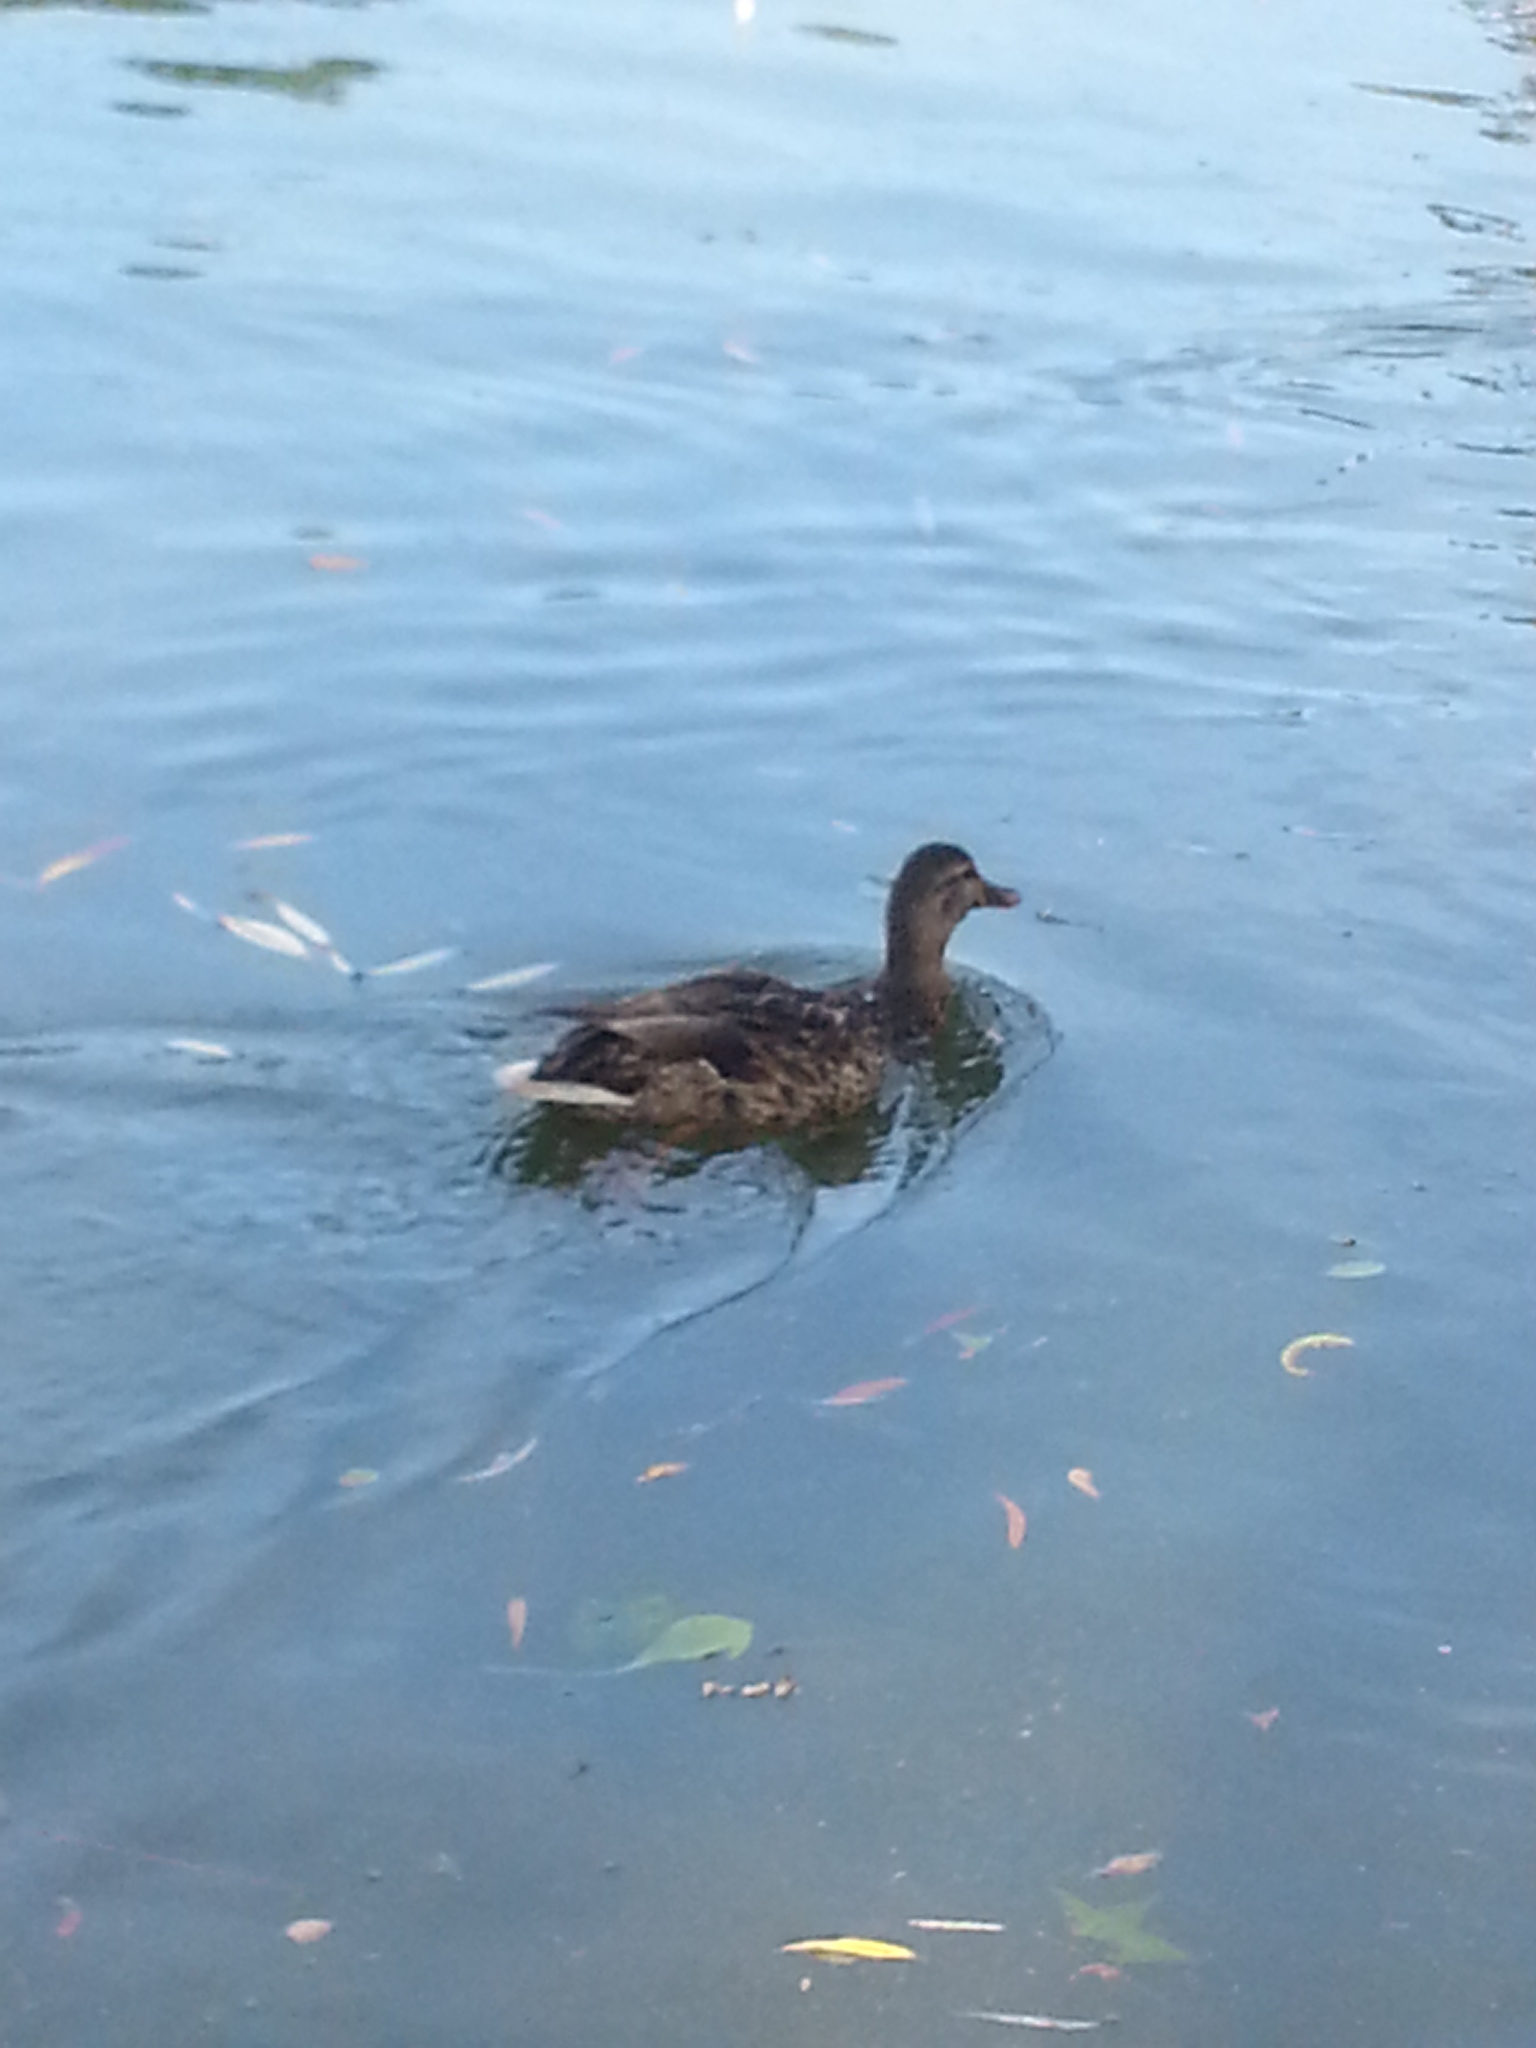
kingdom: Animalia
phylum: Chordata
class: Aves
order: Anseriformes
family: Anatidae
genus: Anas
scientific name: Anas platyrhynchos
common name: Mallard
